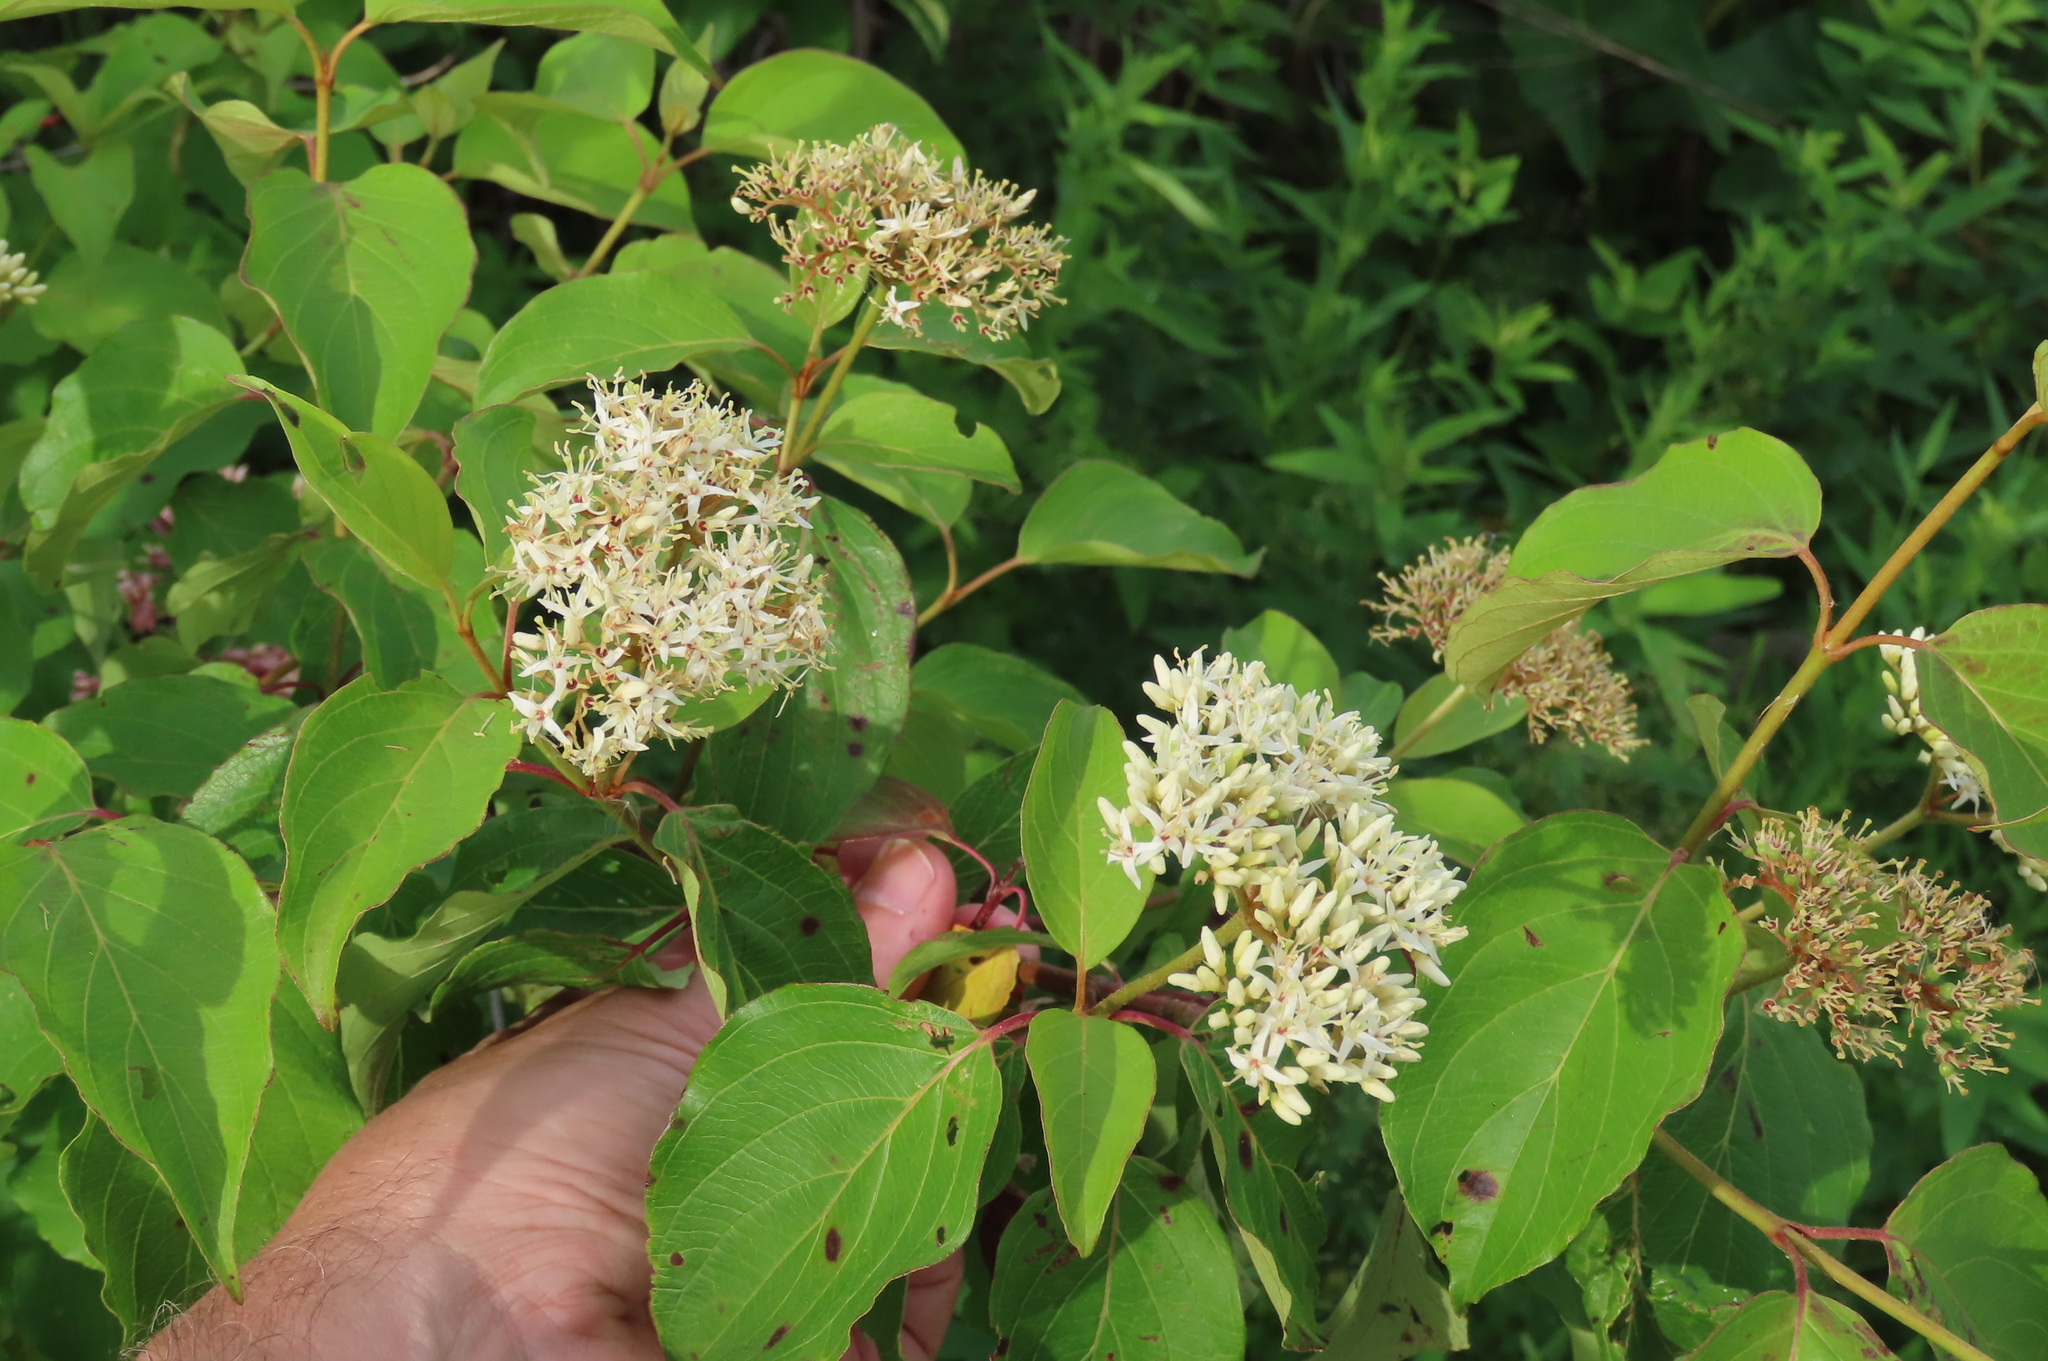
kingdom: Plantae
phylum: Tracheophyta
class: Magnoliopsida
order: Cornales
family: Cornaceae
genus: Cornus
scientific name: Cornus amomum
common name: Silky dogwood
